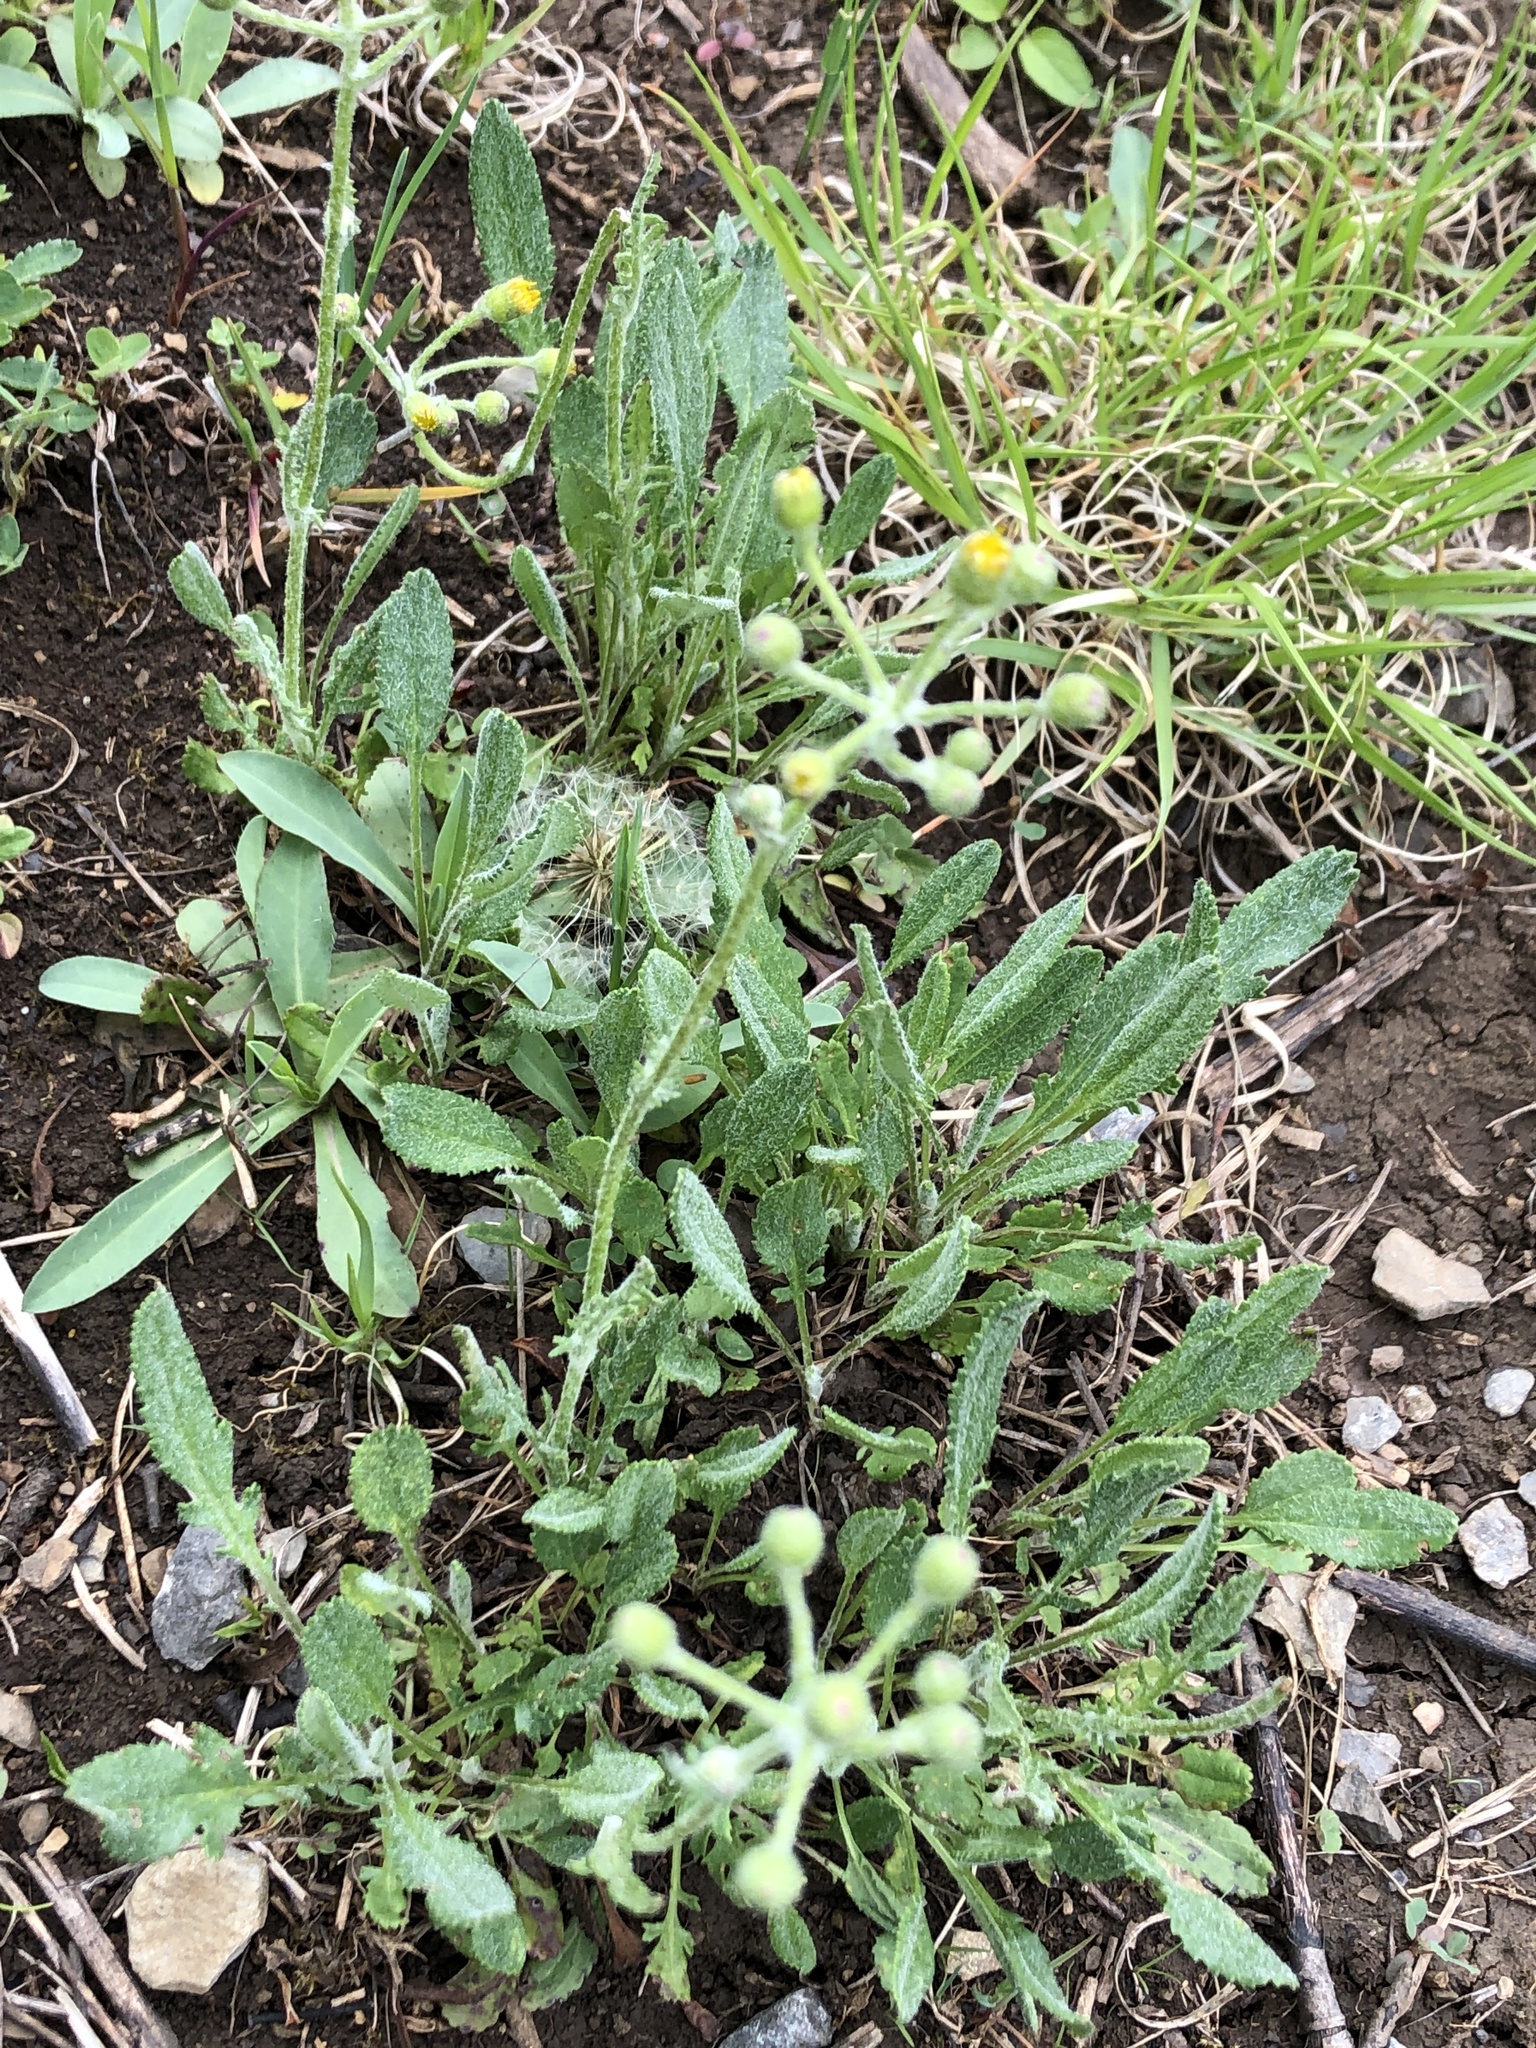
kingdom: Plantae
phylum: Tracheophyta
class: Magnoliopsida
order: Asterales
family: Asteraceae
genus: Packera
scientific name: Packera paupercula
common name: Balsam groundsel
